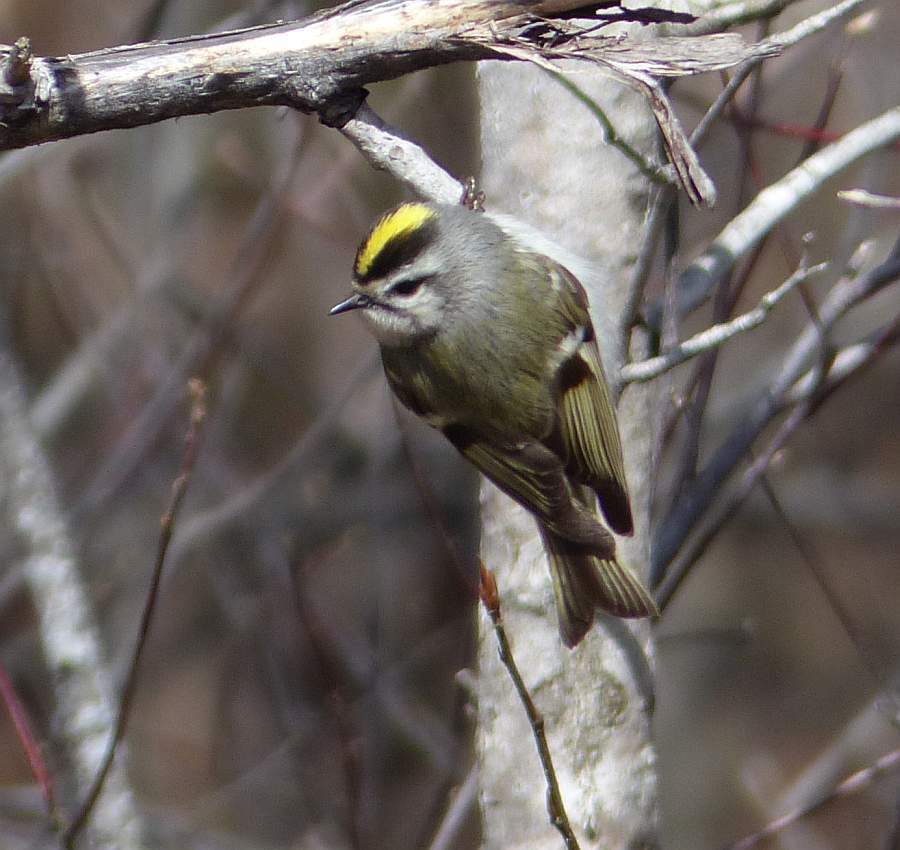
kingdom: Animalia
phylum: Chordata
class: Aves
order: Passeriformes
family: Regulidae
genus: Regulus
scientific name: Regulus satrapa
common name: Golden-crowned kinglet
